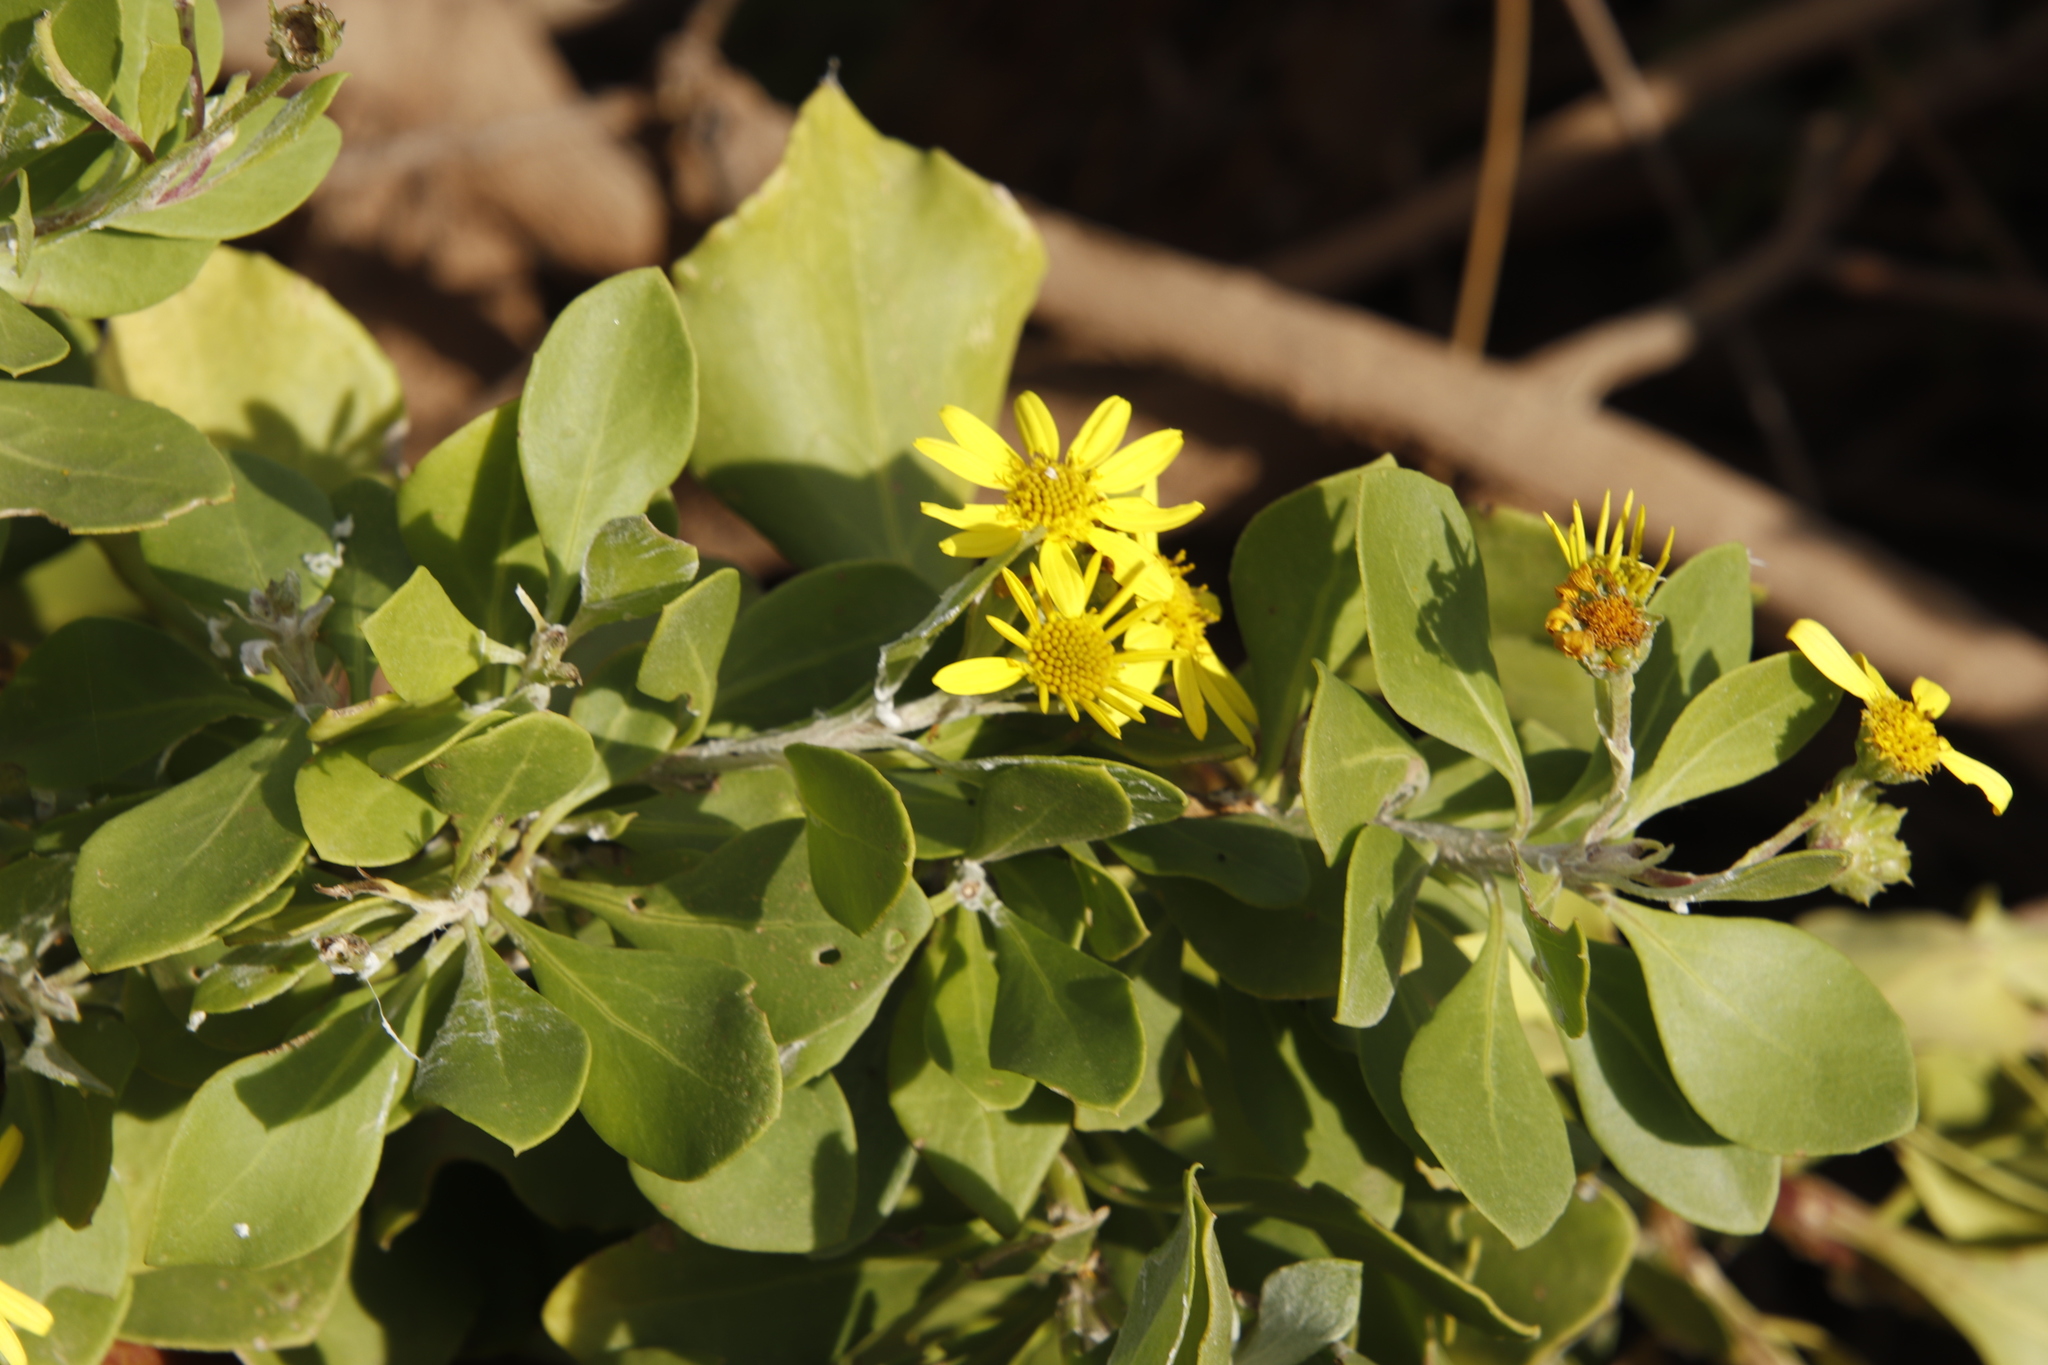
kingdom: Plantae
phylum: Tracheophyta
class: Magnoliopsida
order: Asterales
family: Asteraceae
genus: Osteospermum
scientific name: Osteospermum moniliferum
